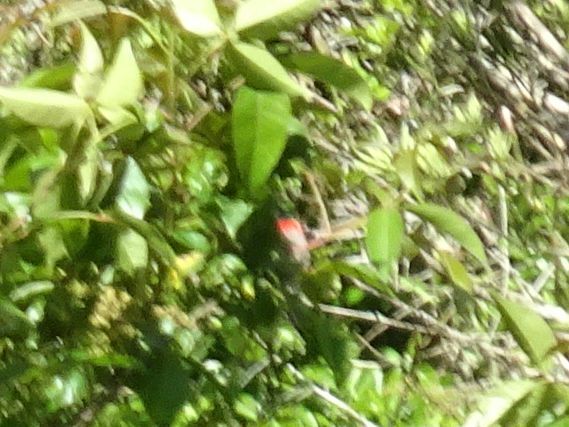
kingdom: Animalia
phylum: Chordata
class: Aves
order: Passeriformes
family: Nectariniidae
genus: Cinnyris
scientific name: Cinnyris chalybeus
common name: Southern double-collared sunbird
